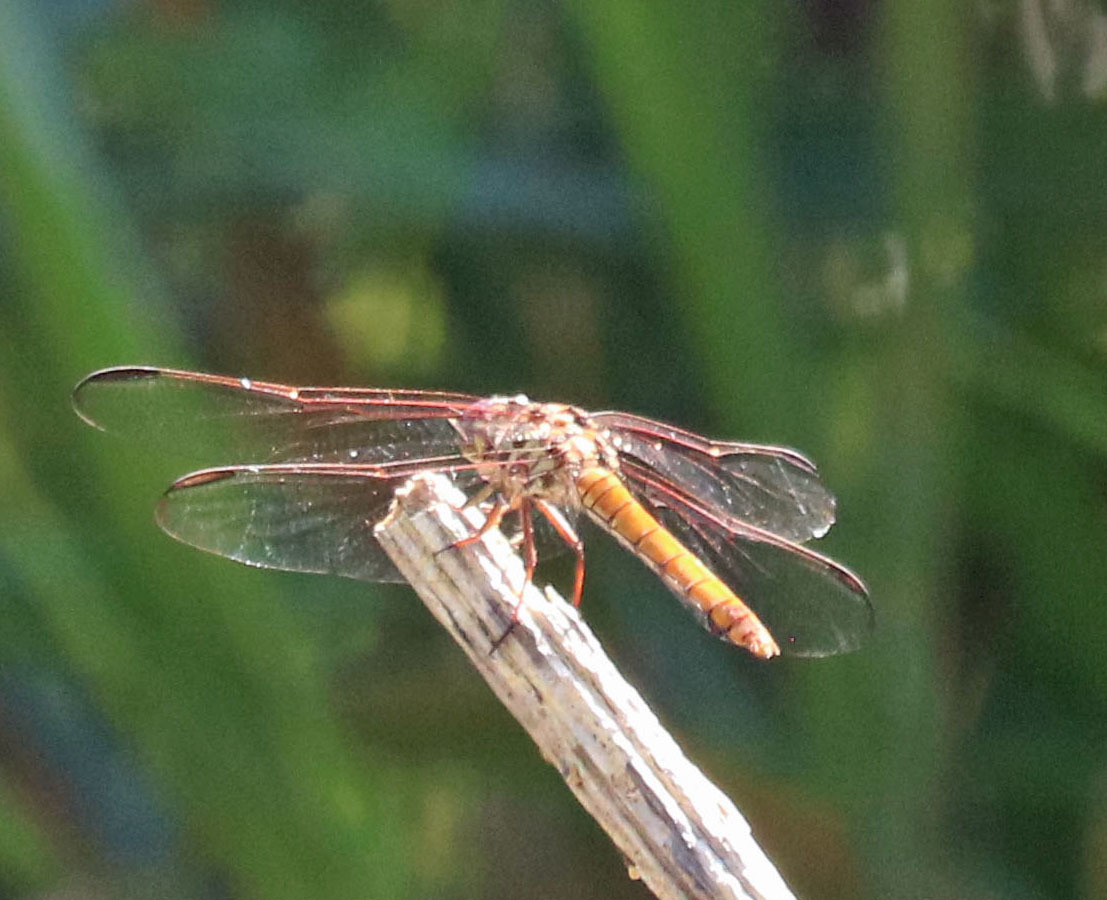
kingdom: Animalia
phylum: Arthropoda
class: Insecta
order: Odonata
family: Libellulidae
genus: Orthemis
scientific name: Orthemis ferruginea
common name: Roseate skimmer
